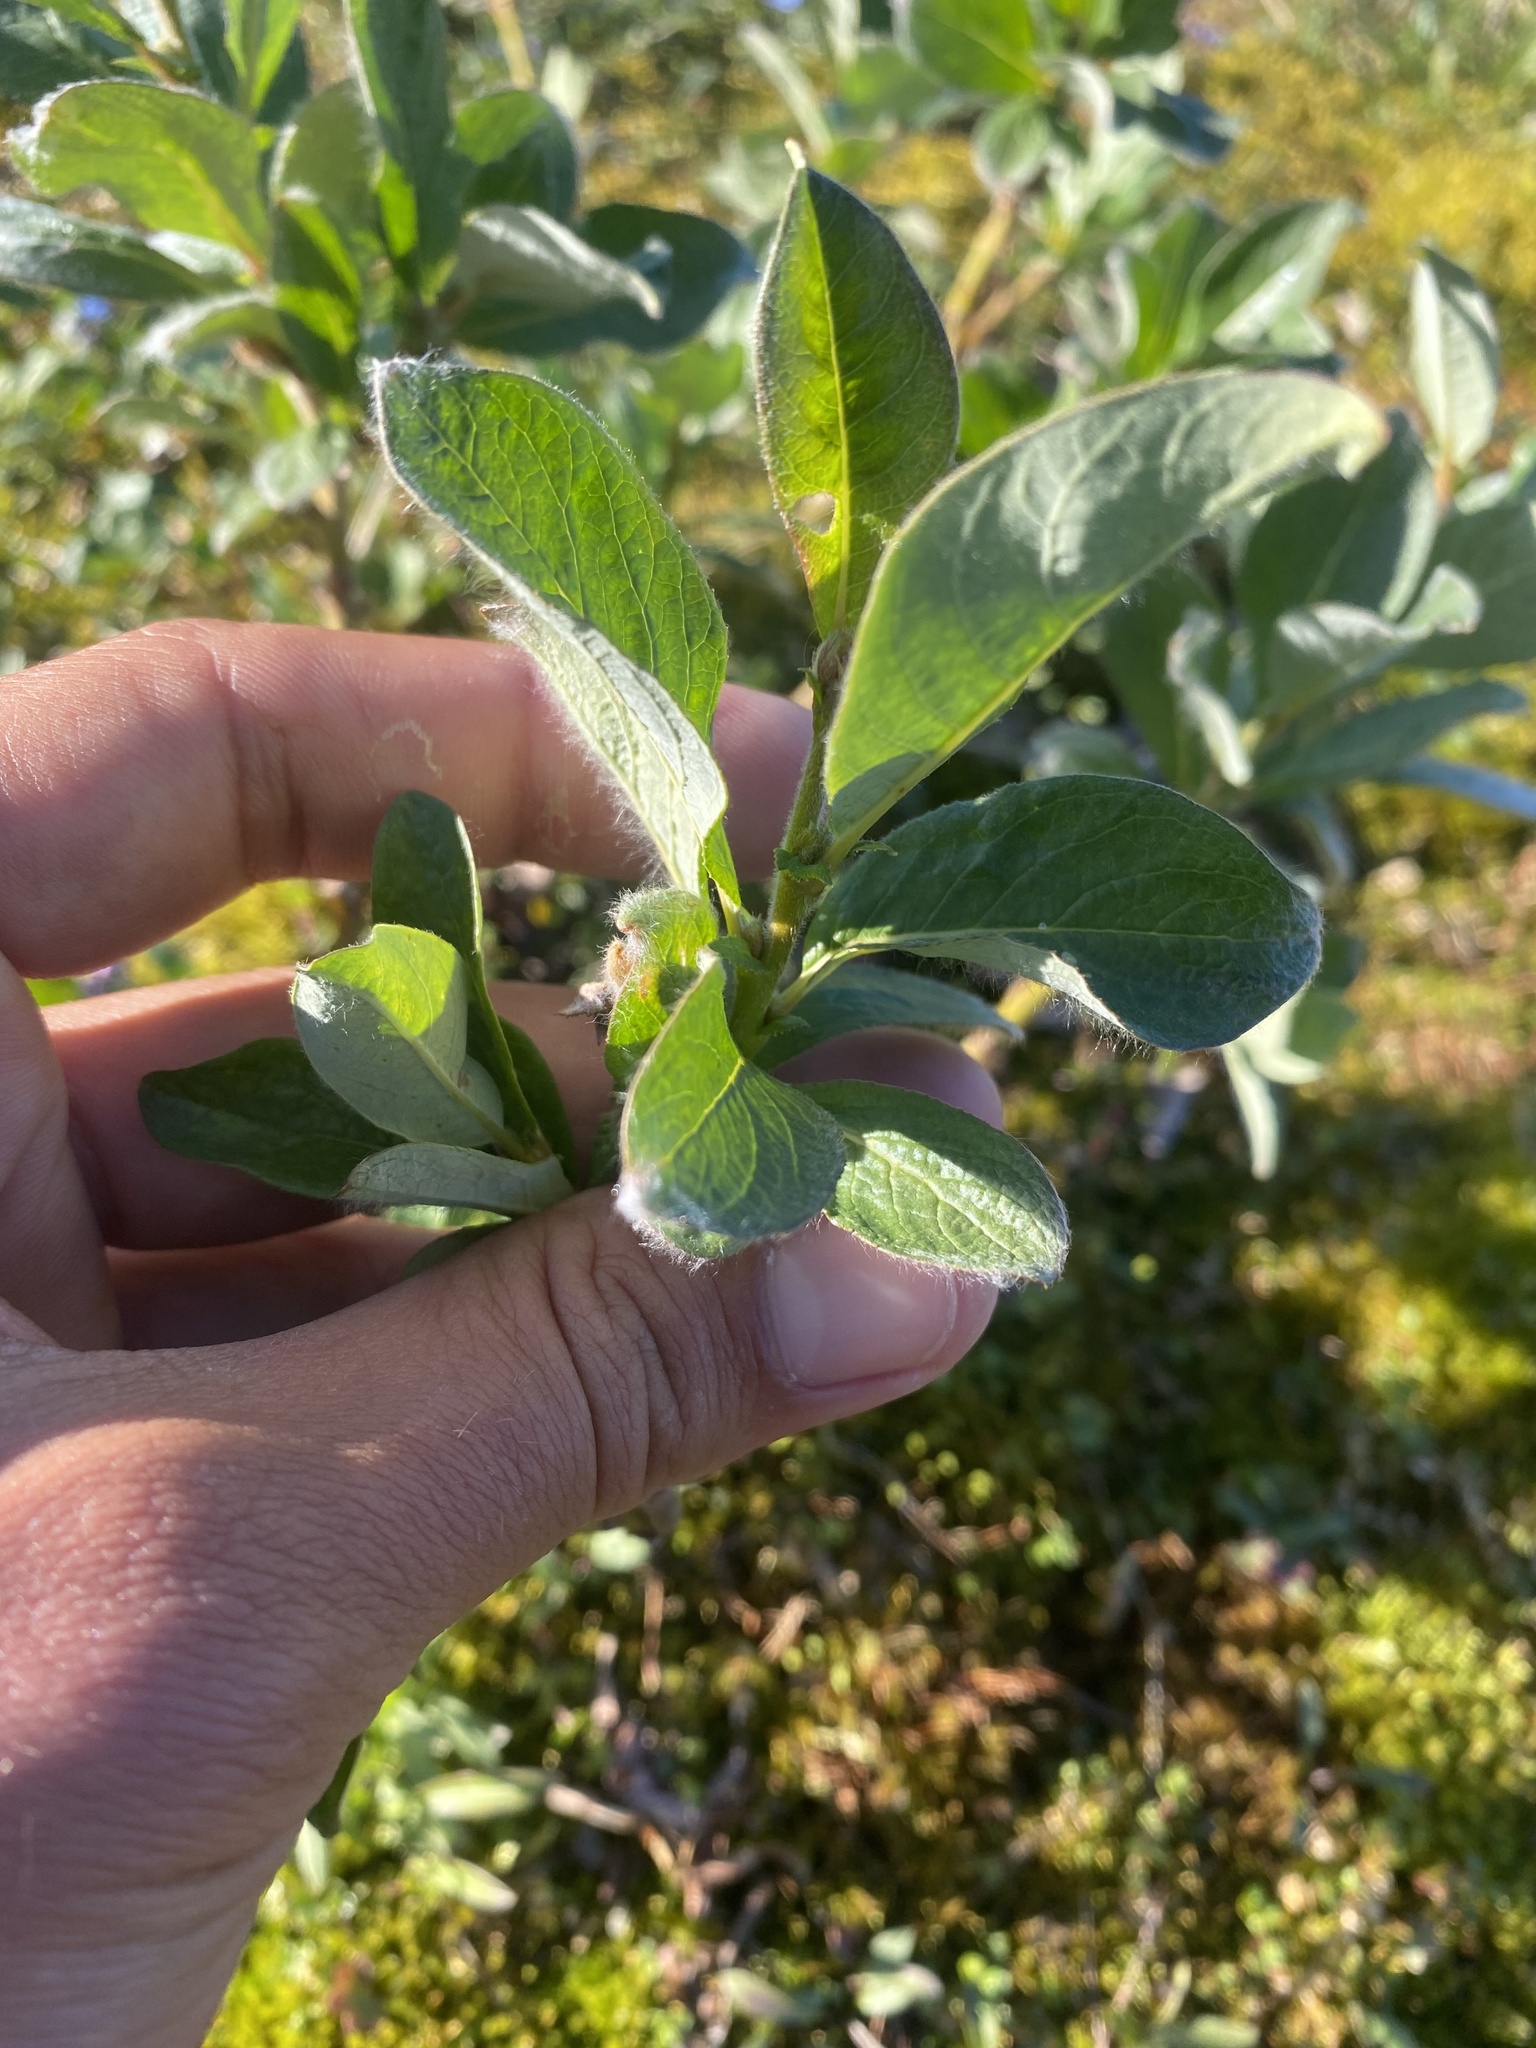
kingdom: Plantae
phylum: Tracheophyta
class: Magnoliopsida
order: Malpighiales
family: Salicaceae
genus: Salix
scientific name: Salix glauca
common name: Glaucous willow
